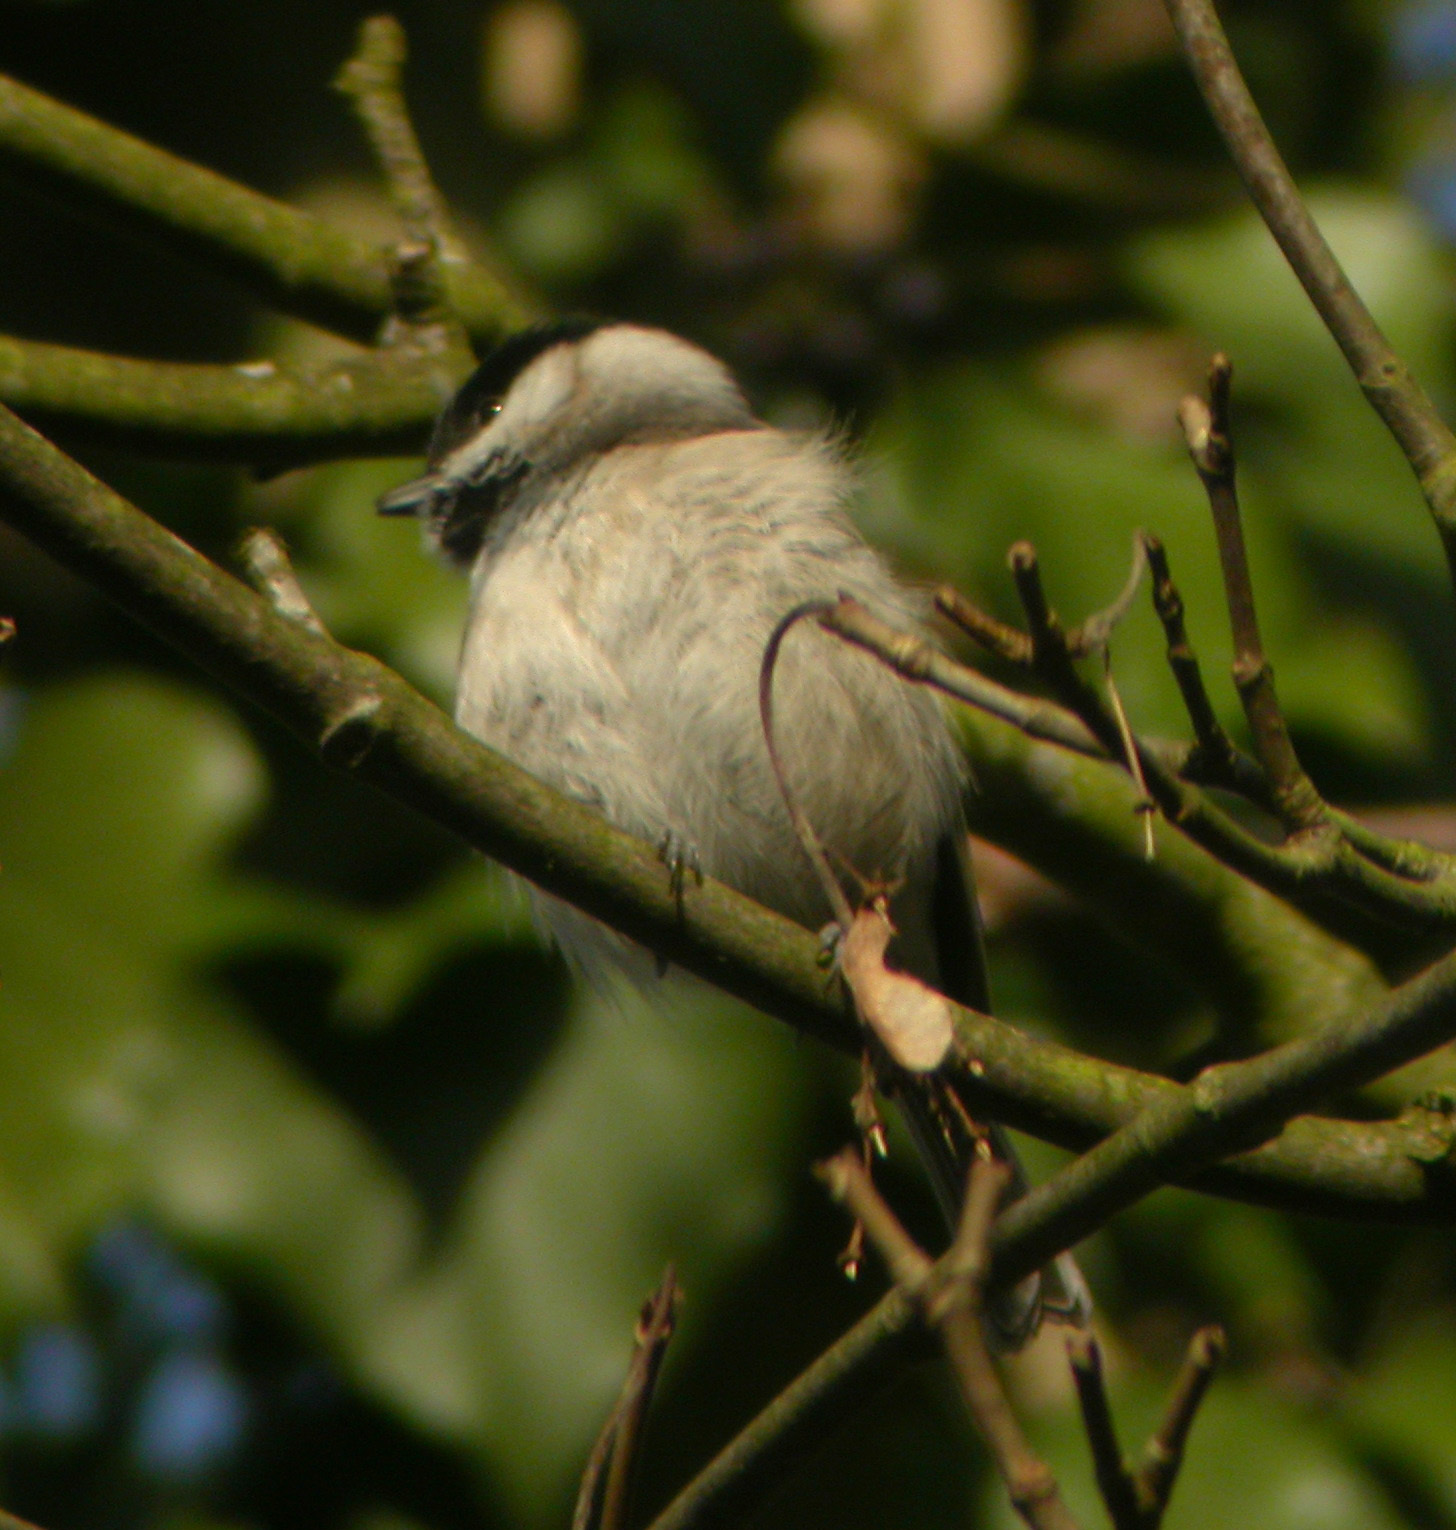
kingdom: Animalia
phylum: Chordata
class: Aves
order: Passeriformes
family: Paridae
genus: Poecile
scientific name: Poecile montanus
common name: Willow tit
